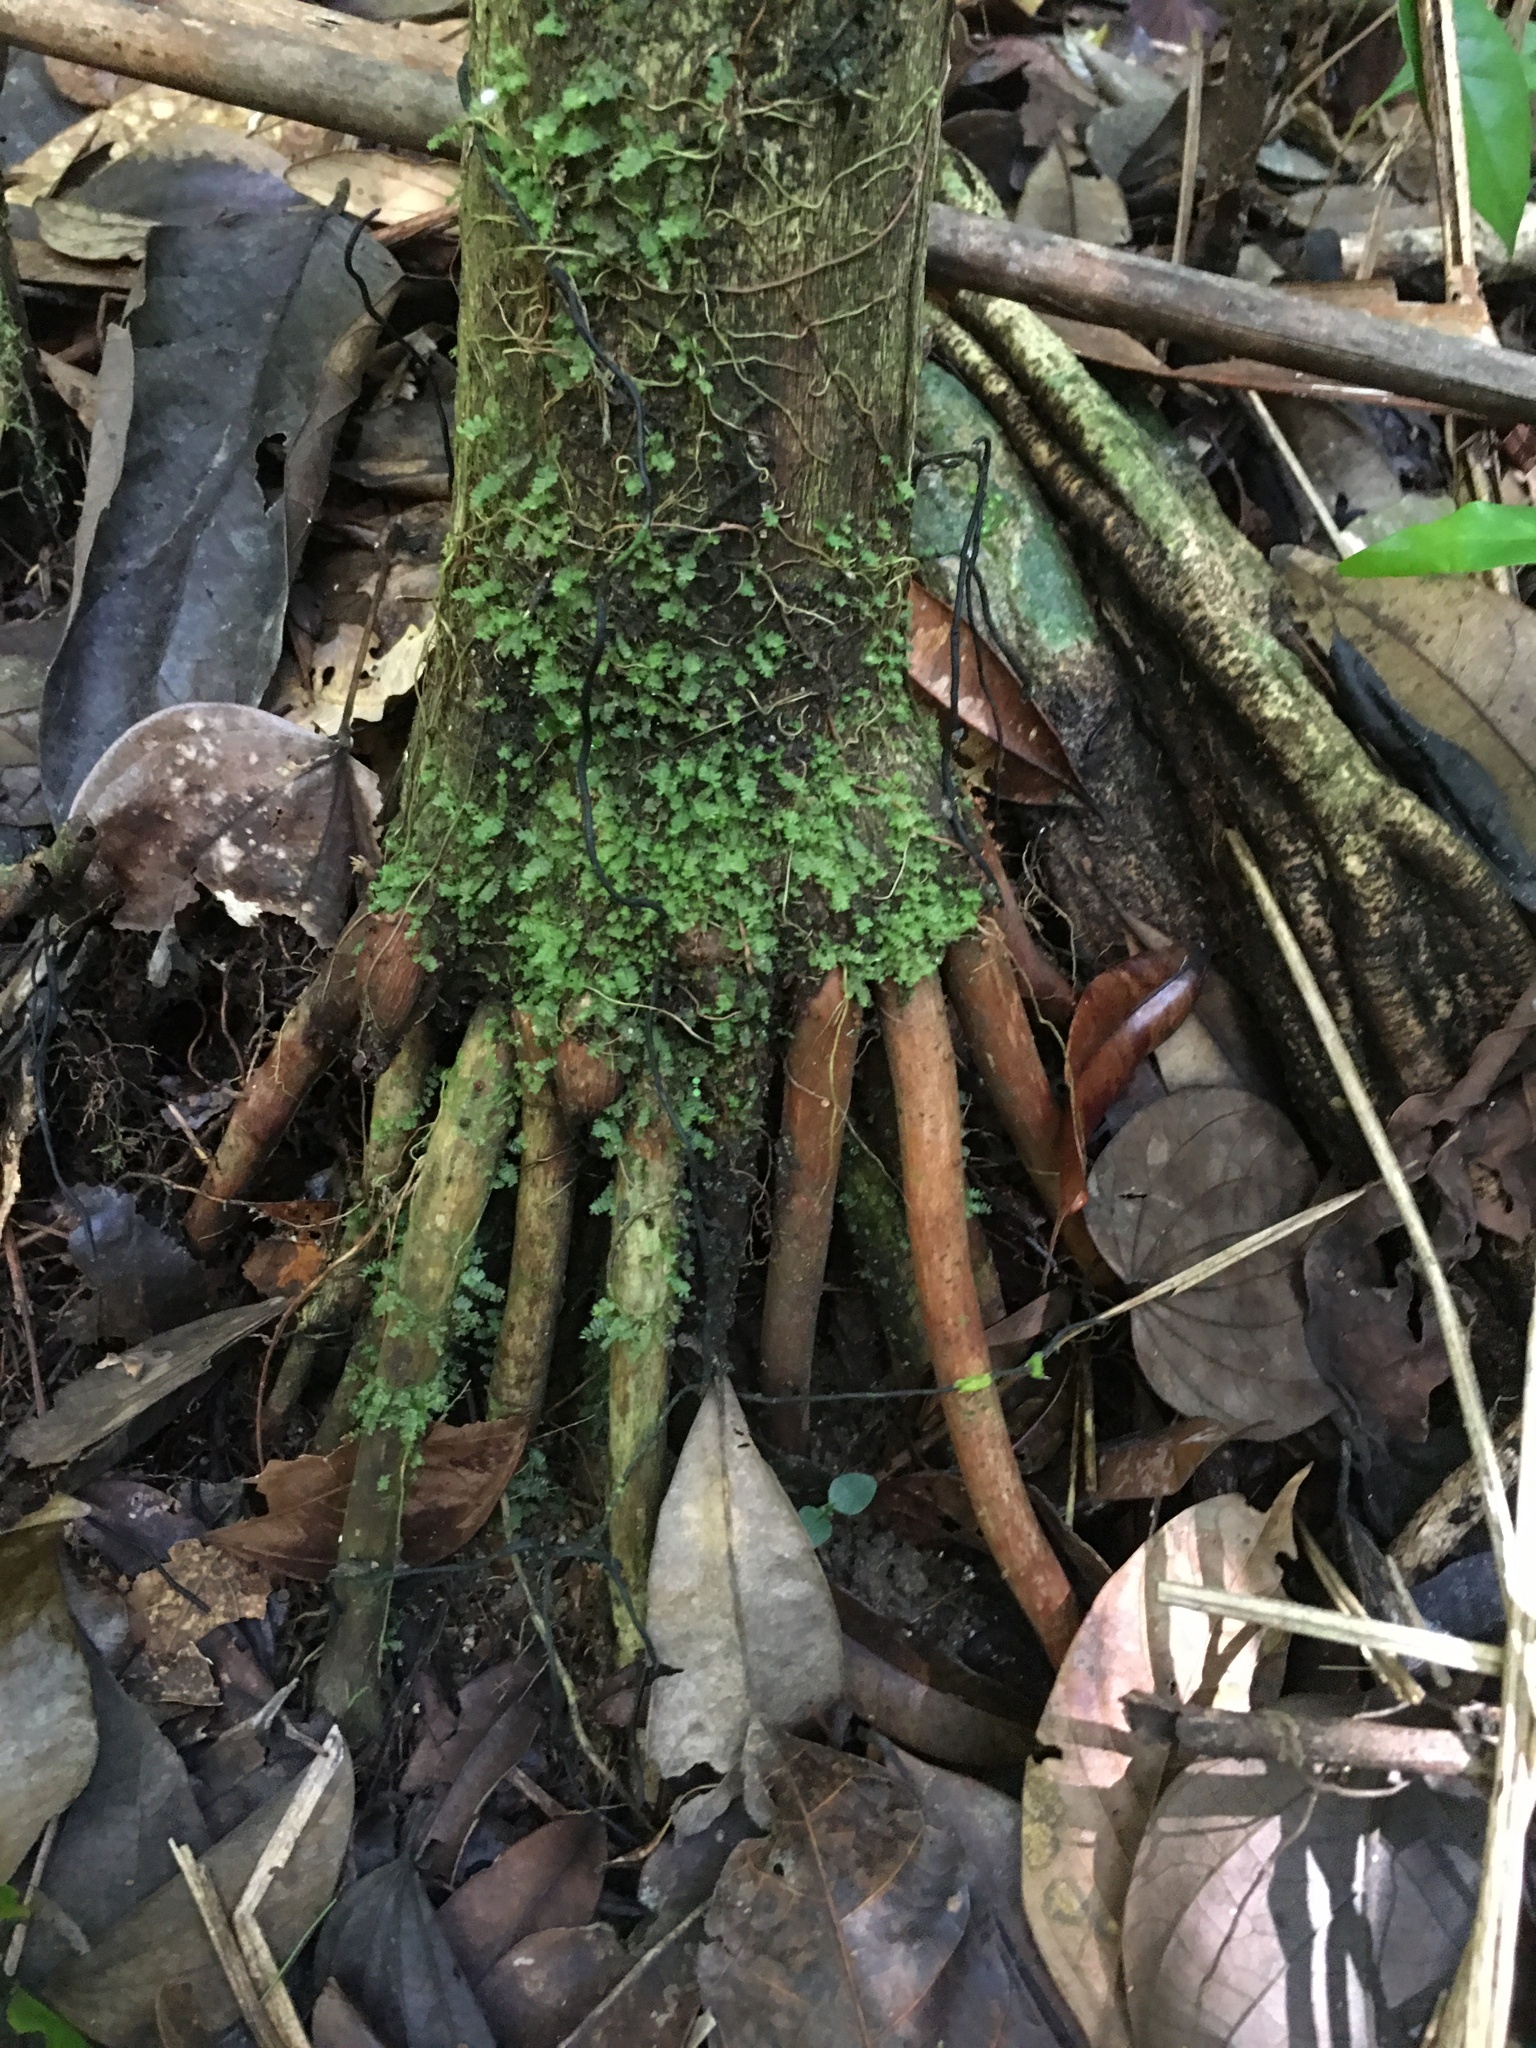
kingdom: Plantae
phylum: Tracheophyta
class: Liliopsida
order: Arecales
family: Arecaceae
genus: Euterpe
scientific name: Euterpe edulis
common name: Assai palm
